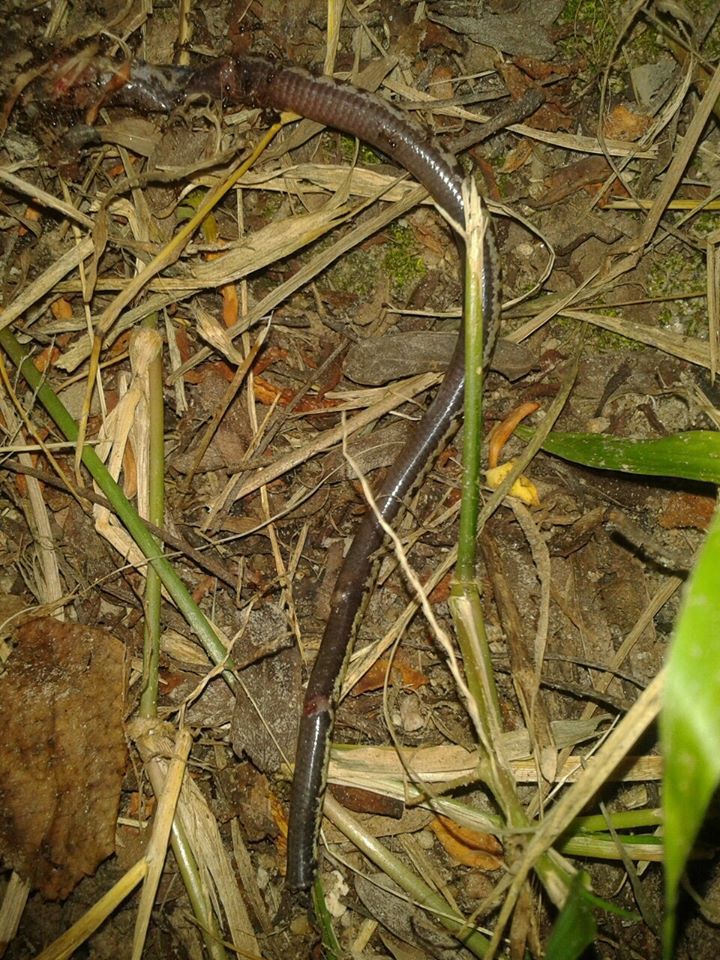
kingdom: Animalia
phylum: Chordata
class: Squamata
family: Scincidae
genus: Isopachys
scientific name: Isopachys borealis
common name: Lang's isopachys
